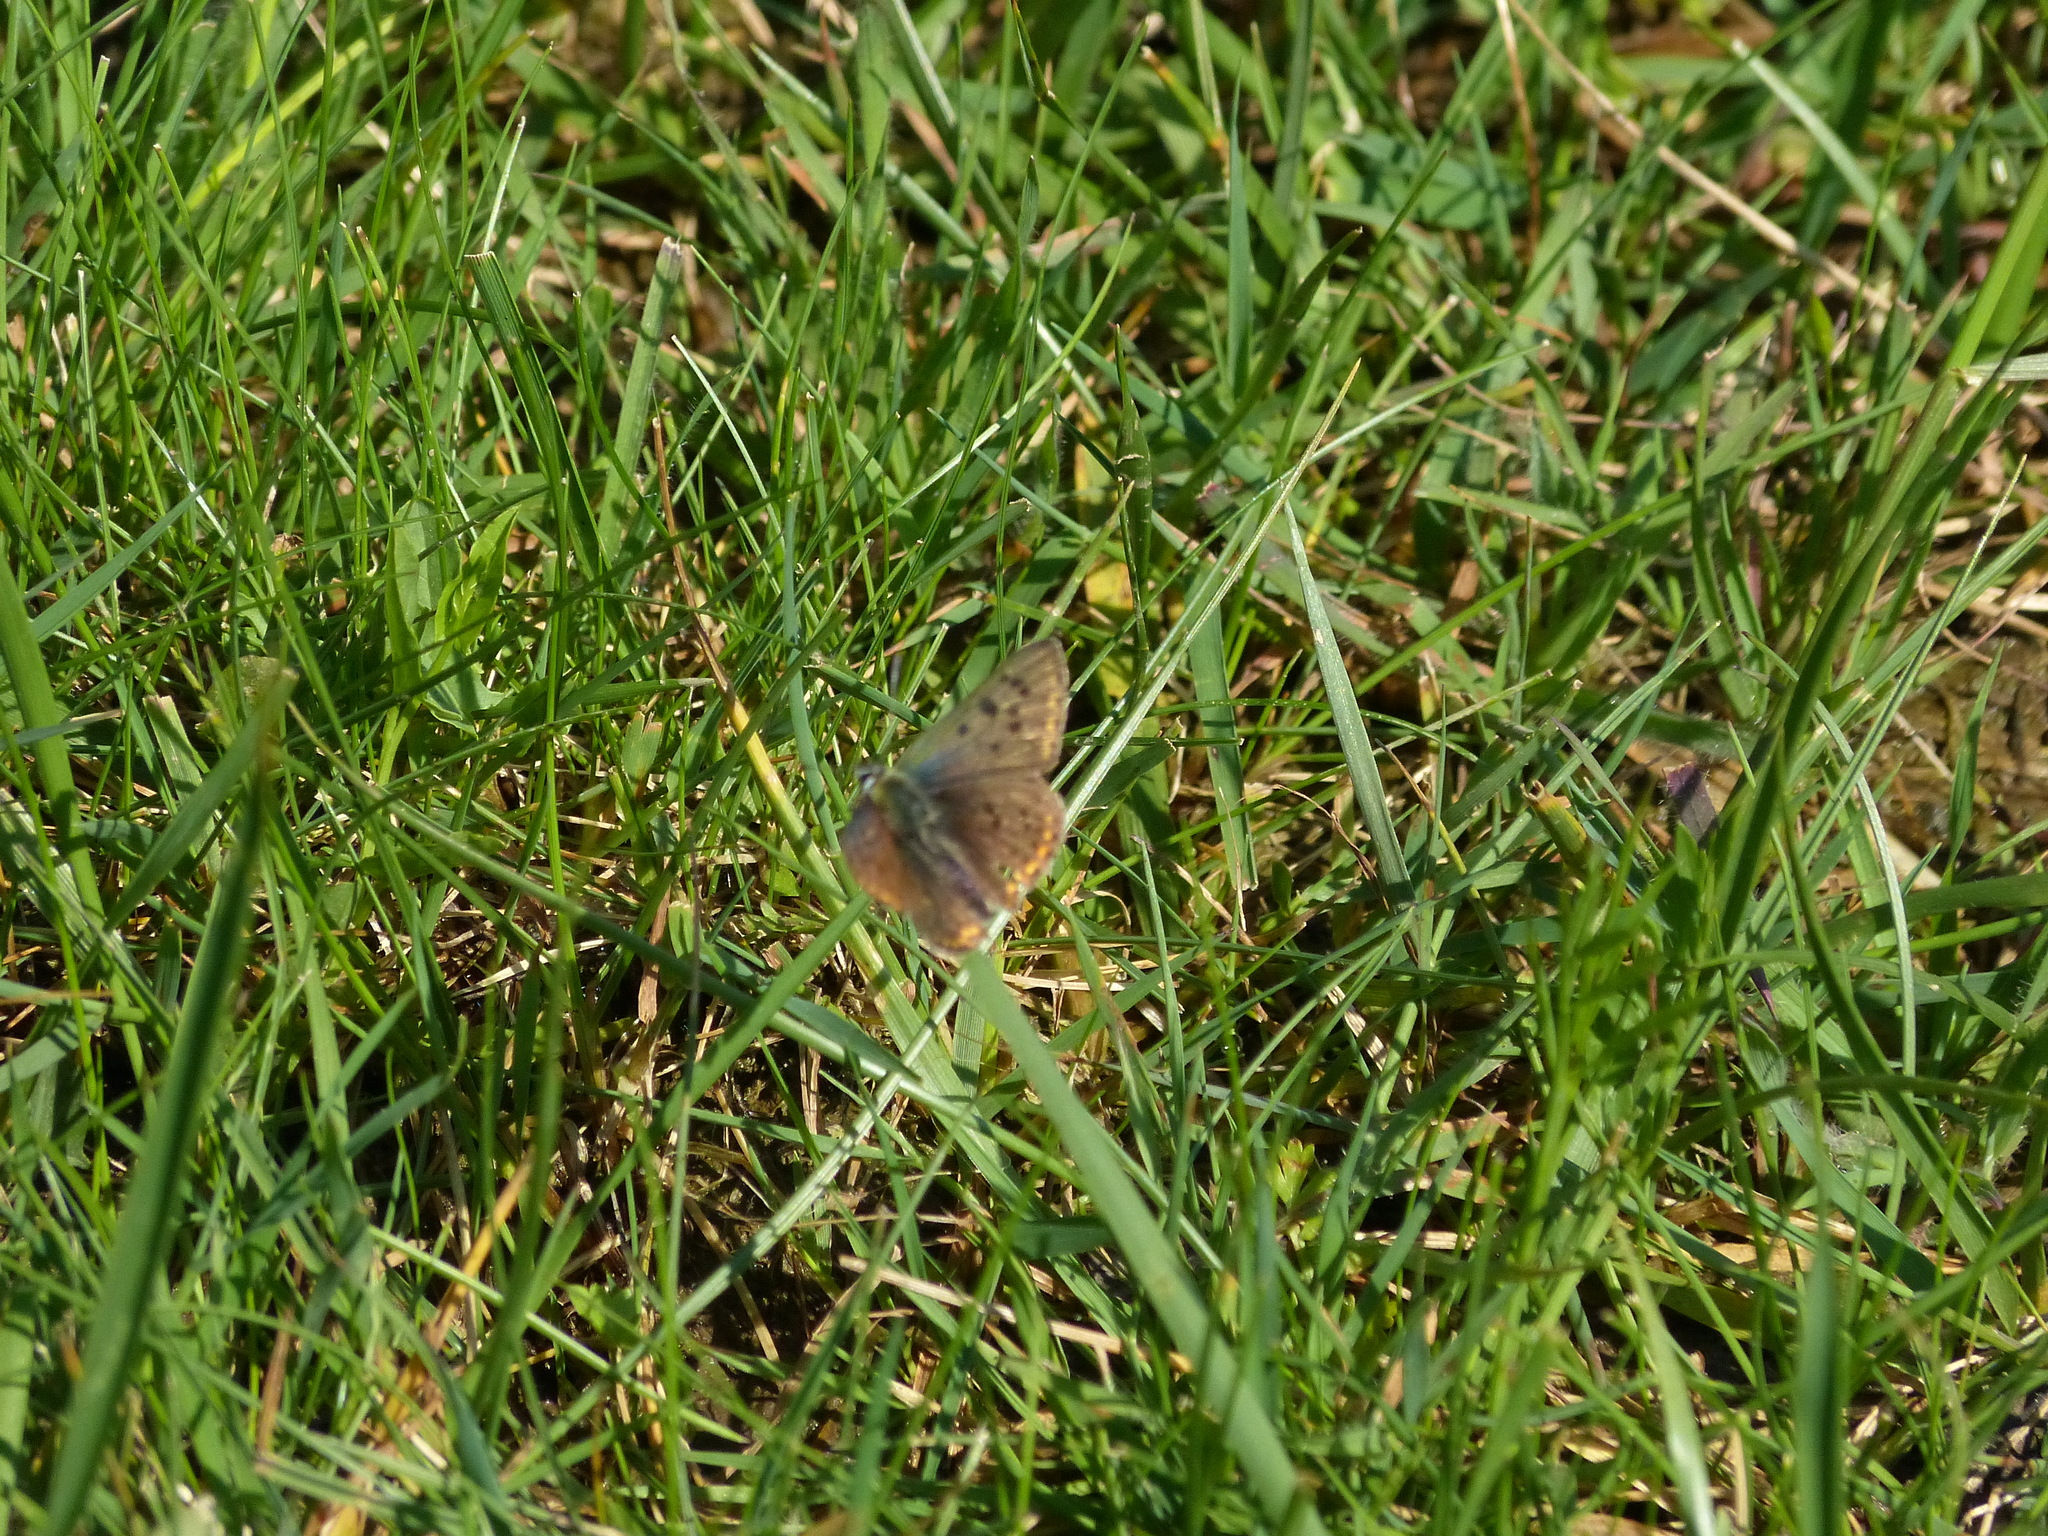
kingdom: Animalia
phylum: Arthropoda
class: Insecta
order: Lepidoptera
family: Lycaenidae
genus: Loweia
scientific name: Loweia tityrus
